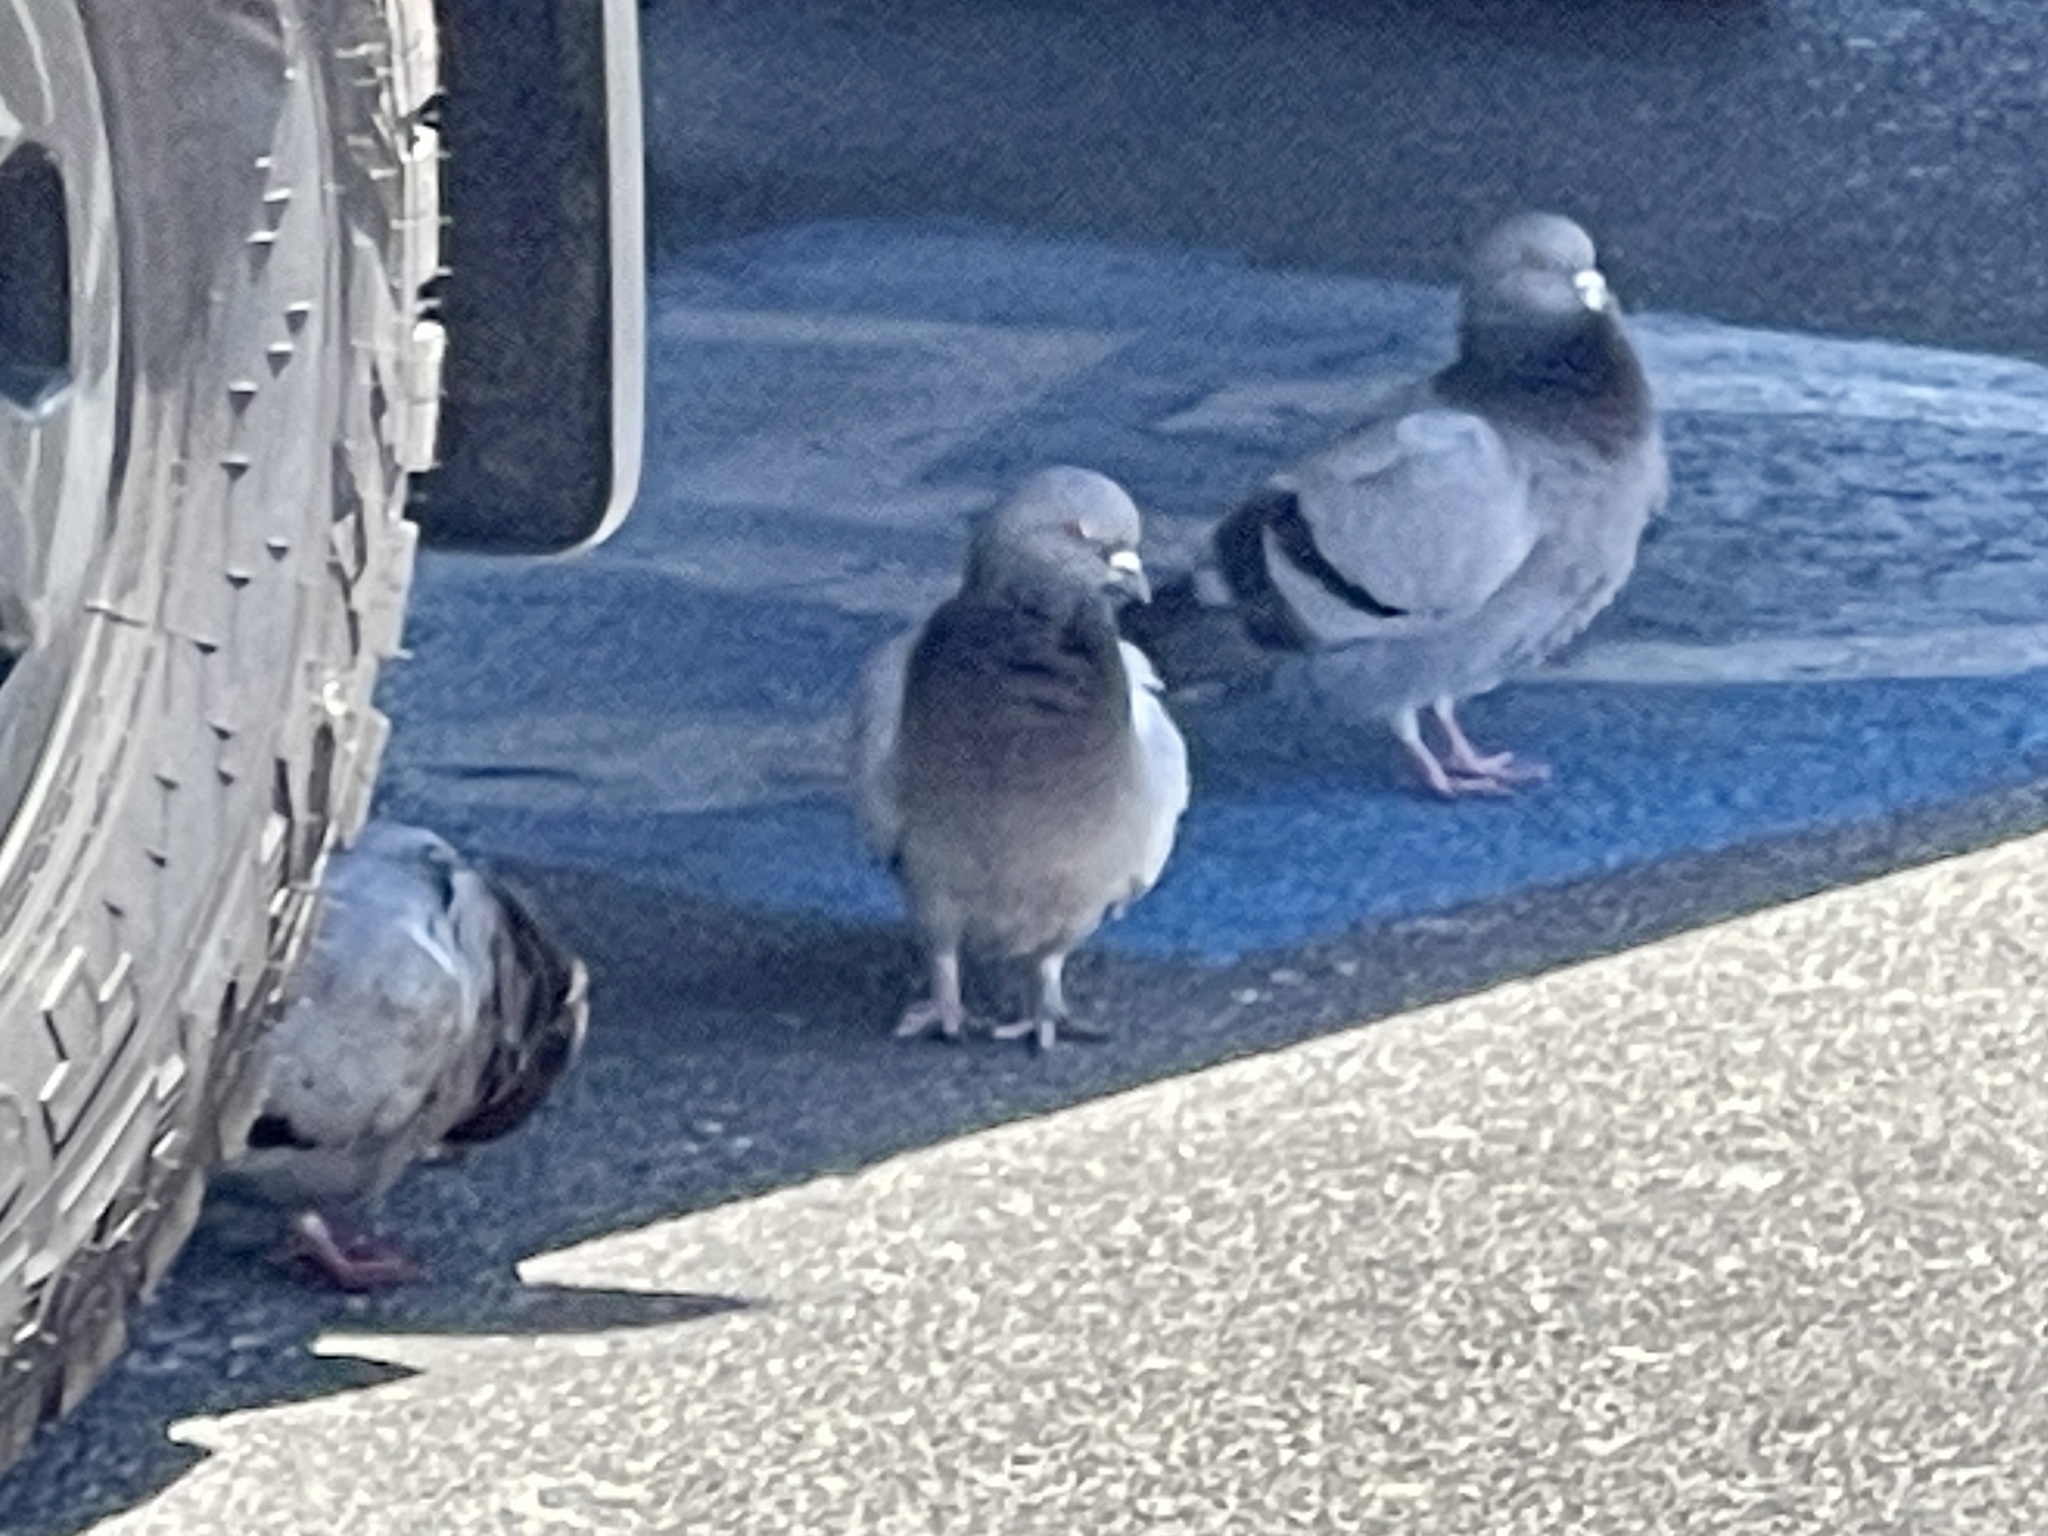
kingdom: Animalia
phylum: Chordata
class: Aves
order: Columbiformes
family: Columbidae
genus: Columba
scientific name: Columba livia
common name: Rock pigeon
